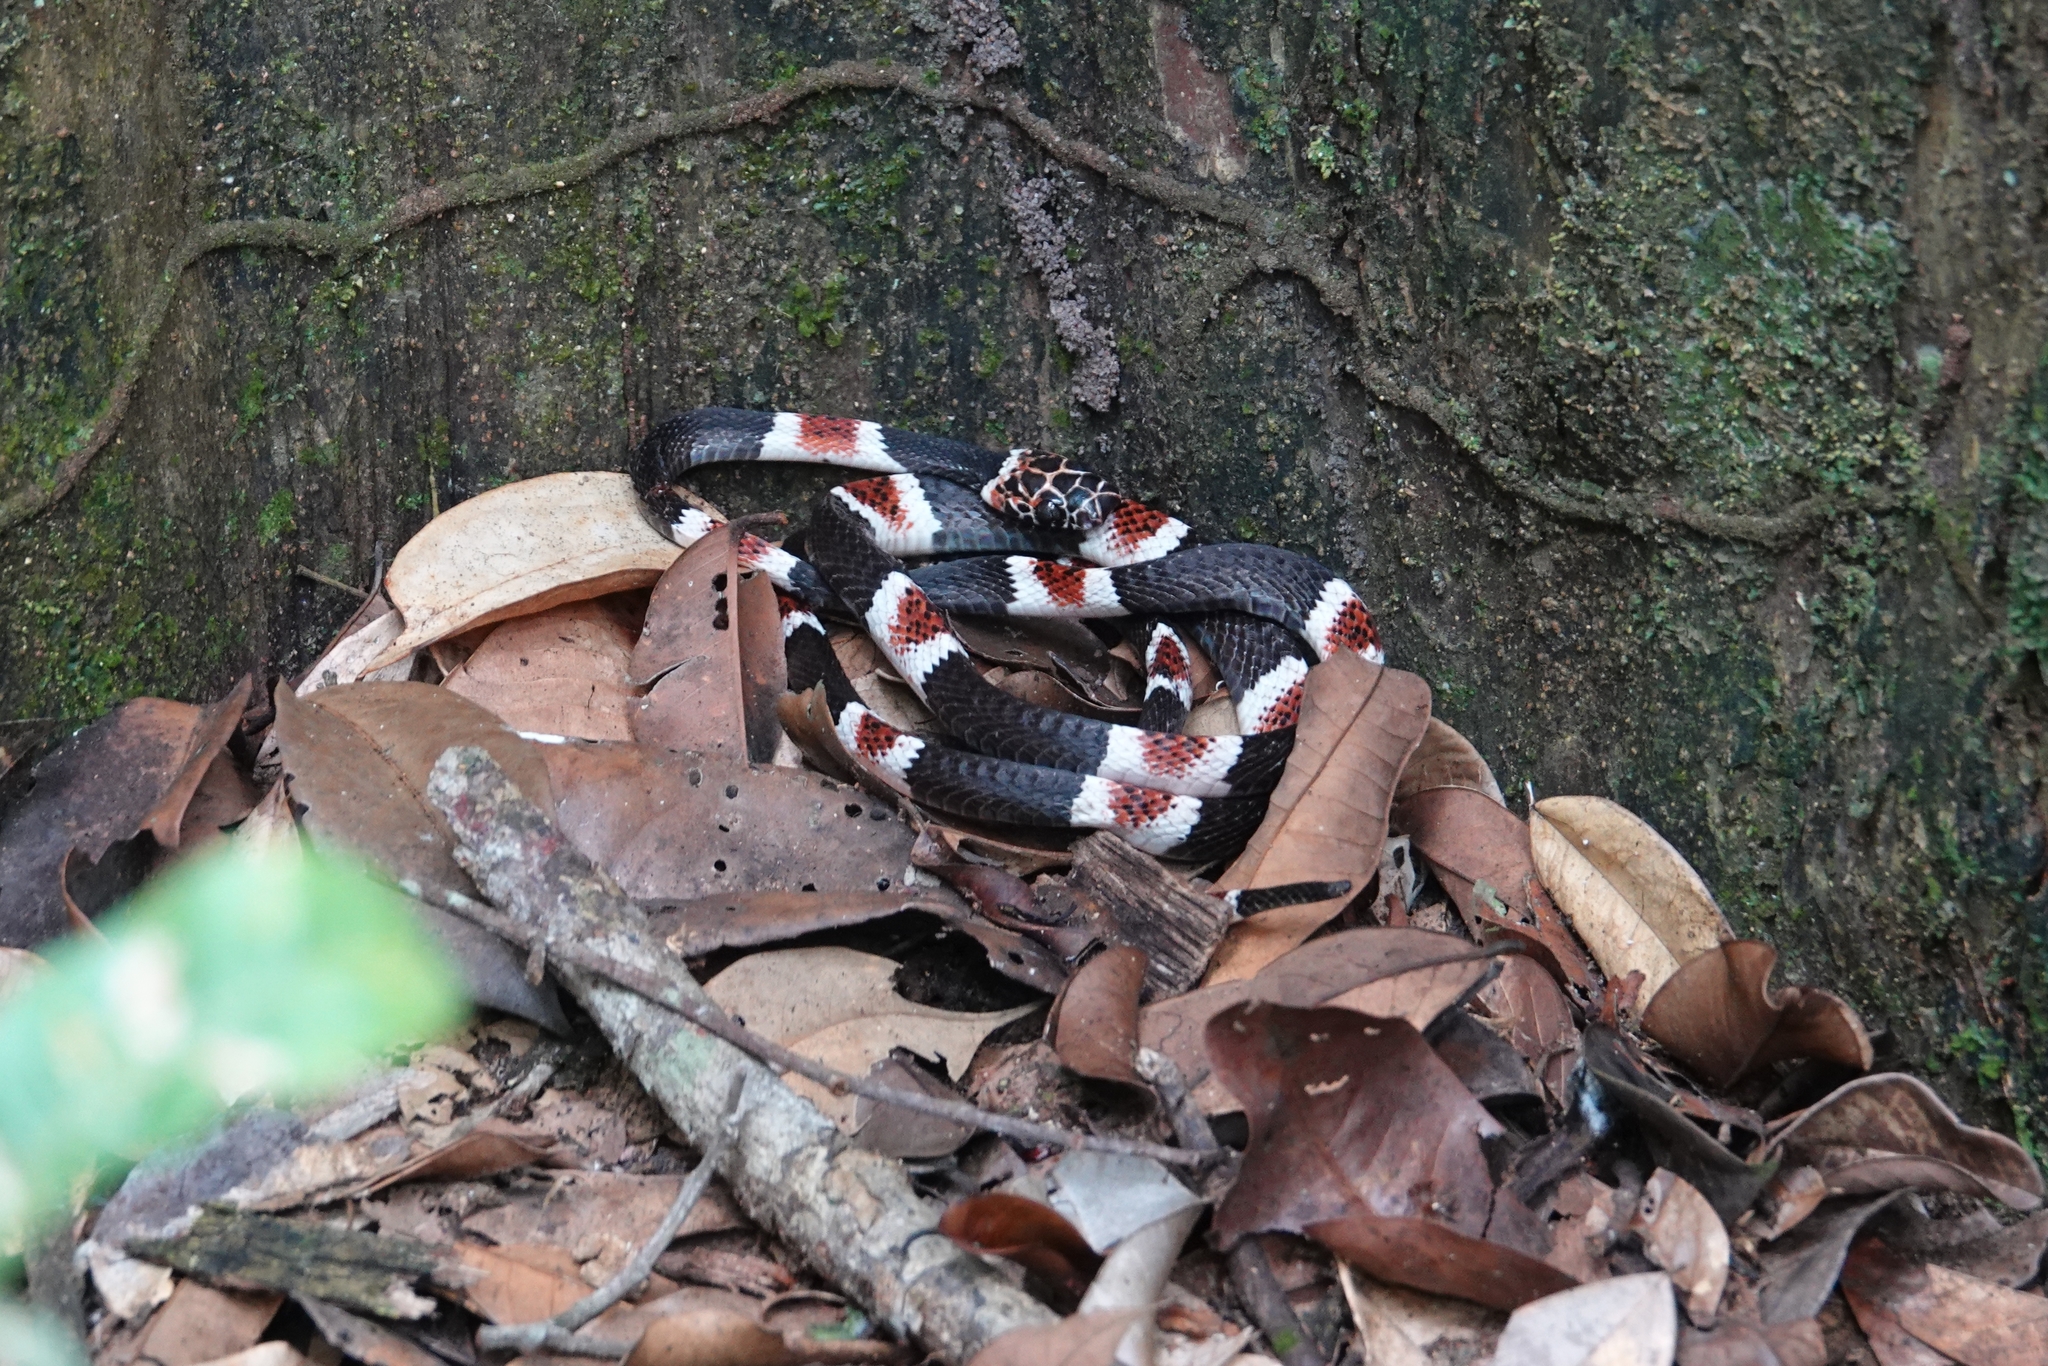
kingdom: Animalia
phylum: Chordata
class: Squamata
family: Colubridae
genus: Rhinobothryum
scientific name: Rhinobothryum lentiginosum
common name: Amazon banded snake
